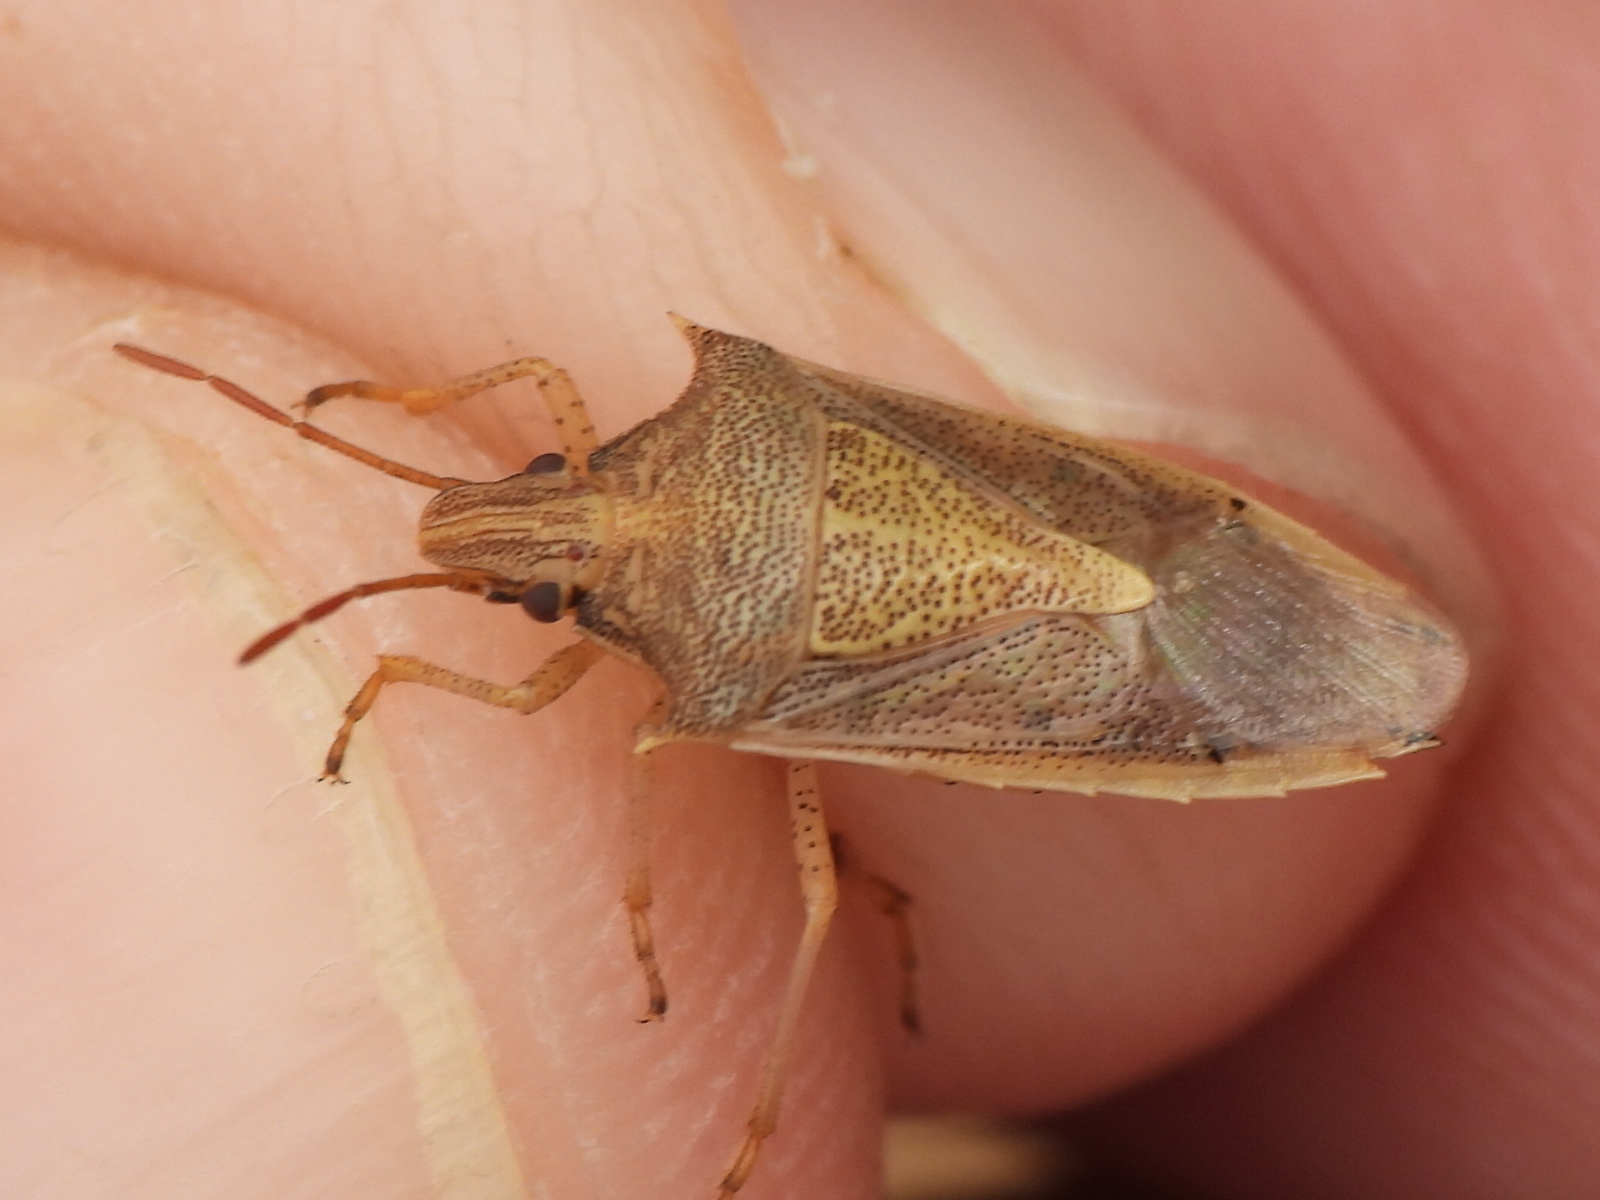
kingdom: Animalia
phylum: Arthropoda
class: Insecta
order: Hemiptera
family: Pentatomidae
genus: Oebalus
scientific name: Oebalus pugnax
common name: Rice stink bug
